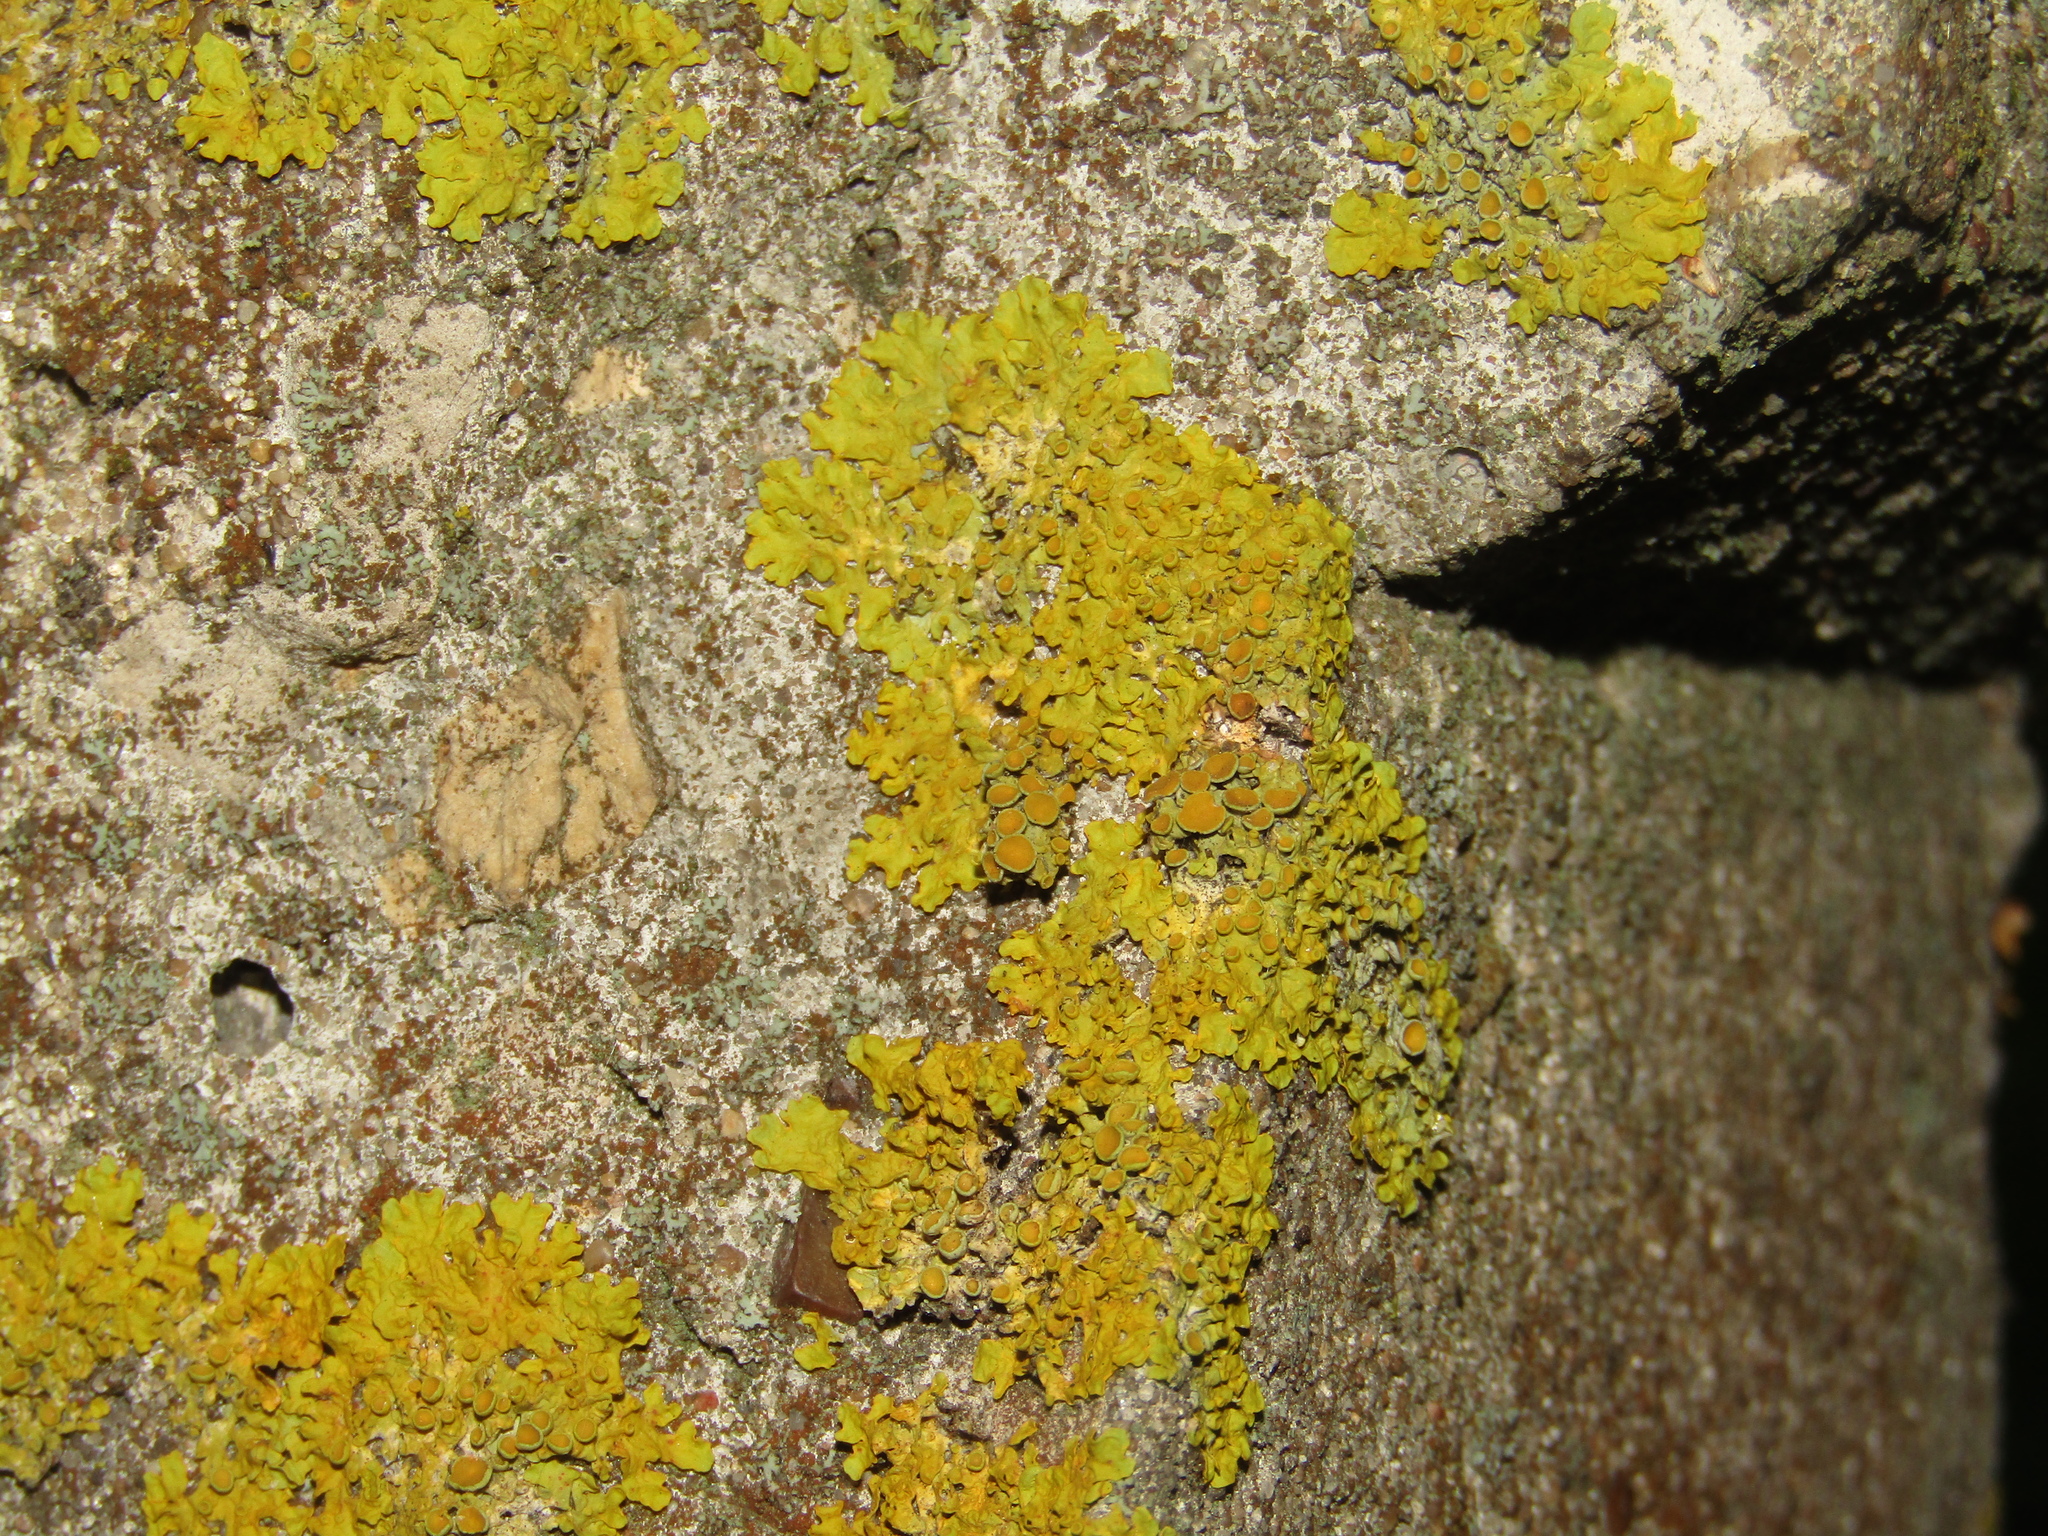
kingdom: Fungi
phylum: Ascomycota
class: Lecanoromycetes
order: Teloschistales
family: Teloschistaceae
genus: Xanthoria
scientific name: Xanthoria parietina
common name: Common orange lichen
